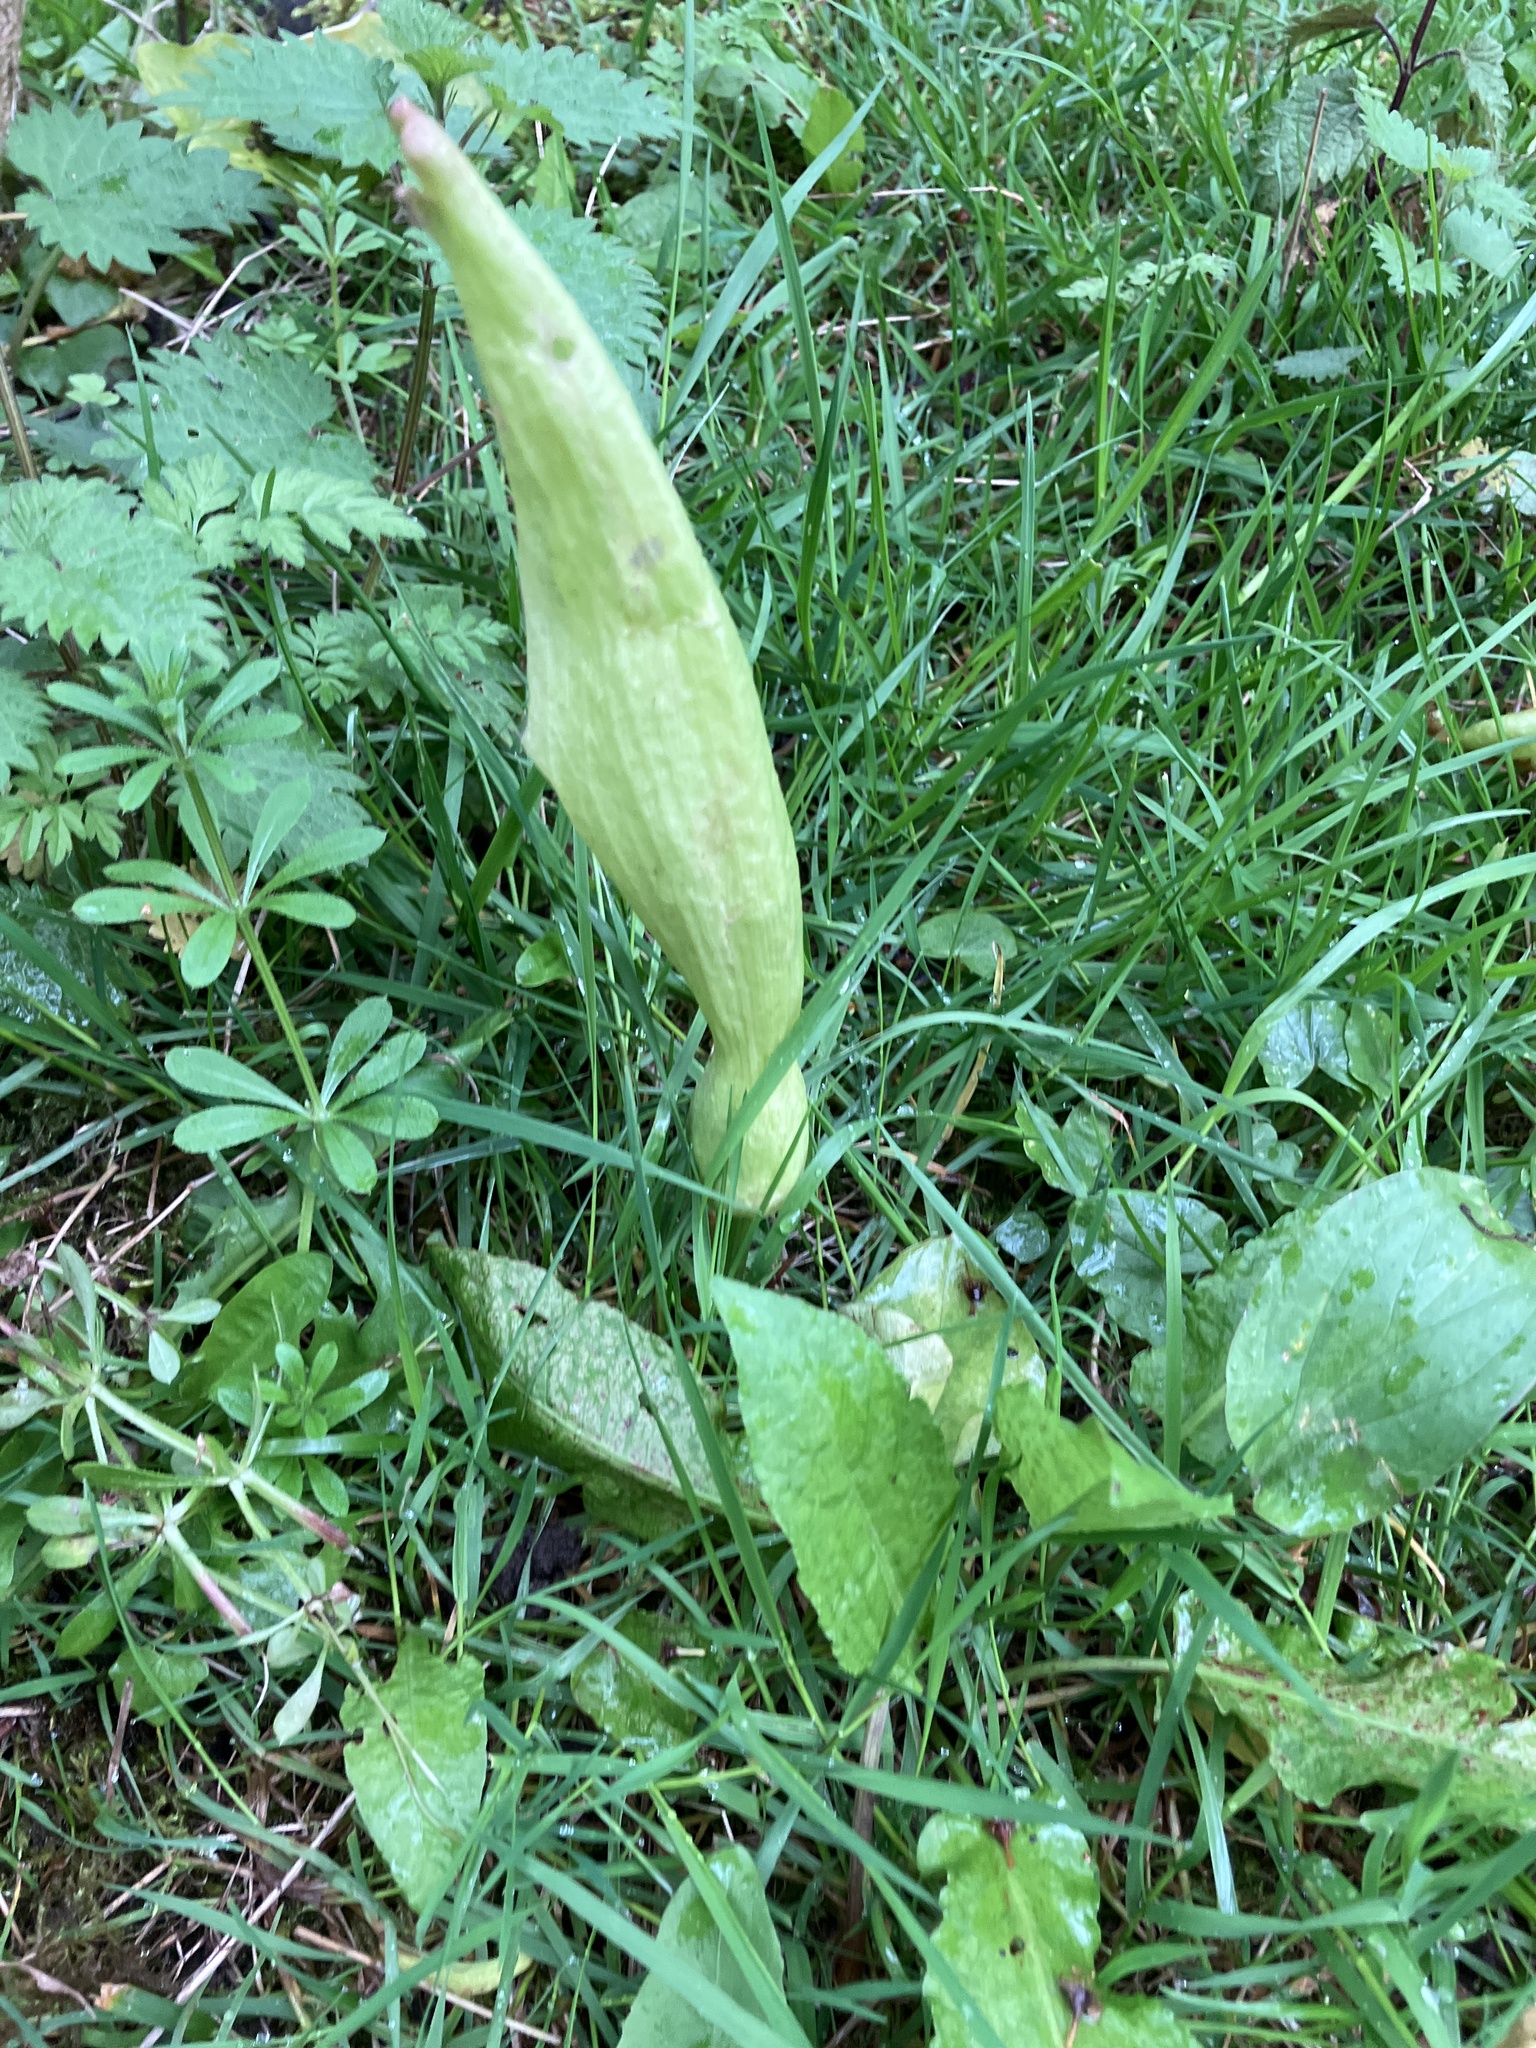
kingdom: Plantae
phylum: Tracheophyta
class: Liliopsida
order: Alismatales
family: Araceae
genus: Arum
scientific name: Arum maculatum
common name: Lords-and-ladies
